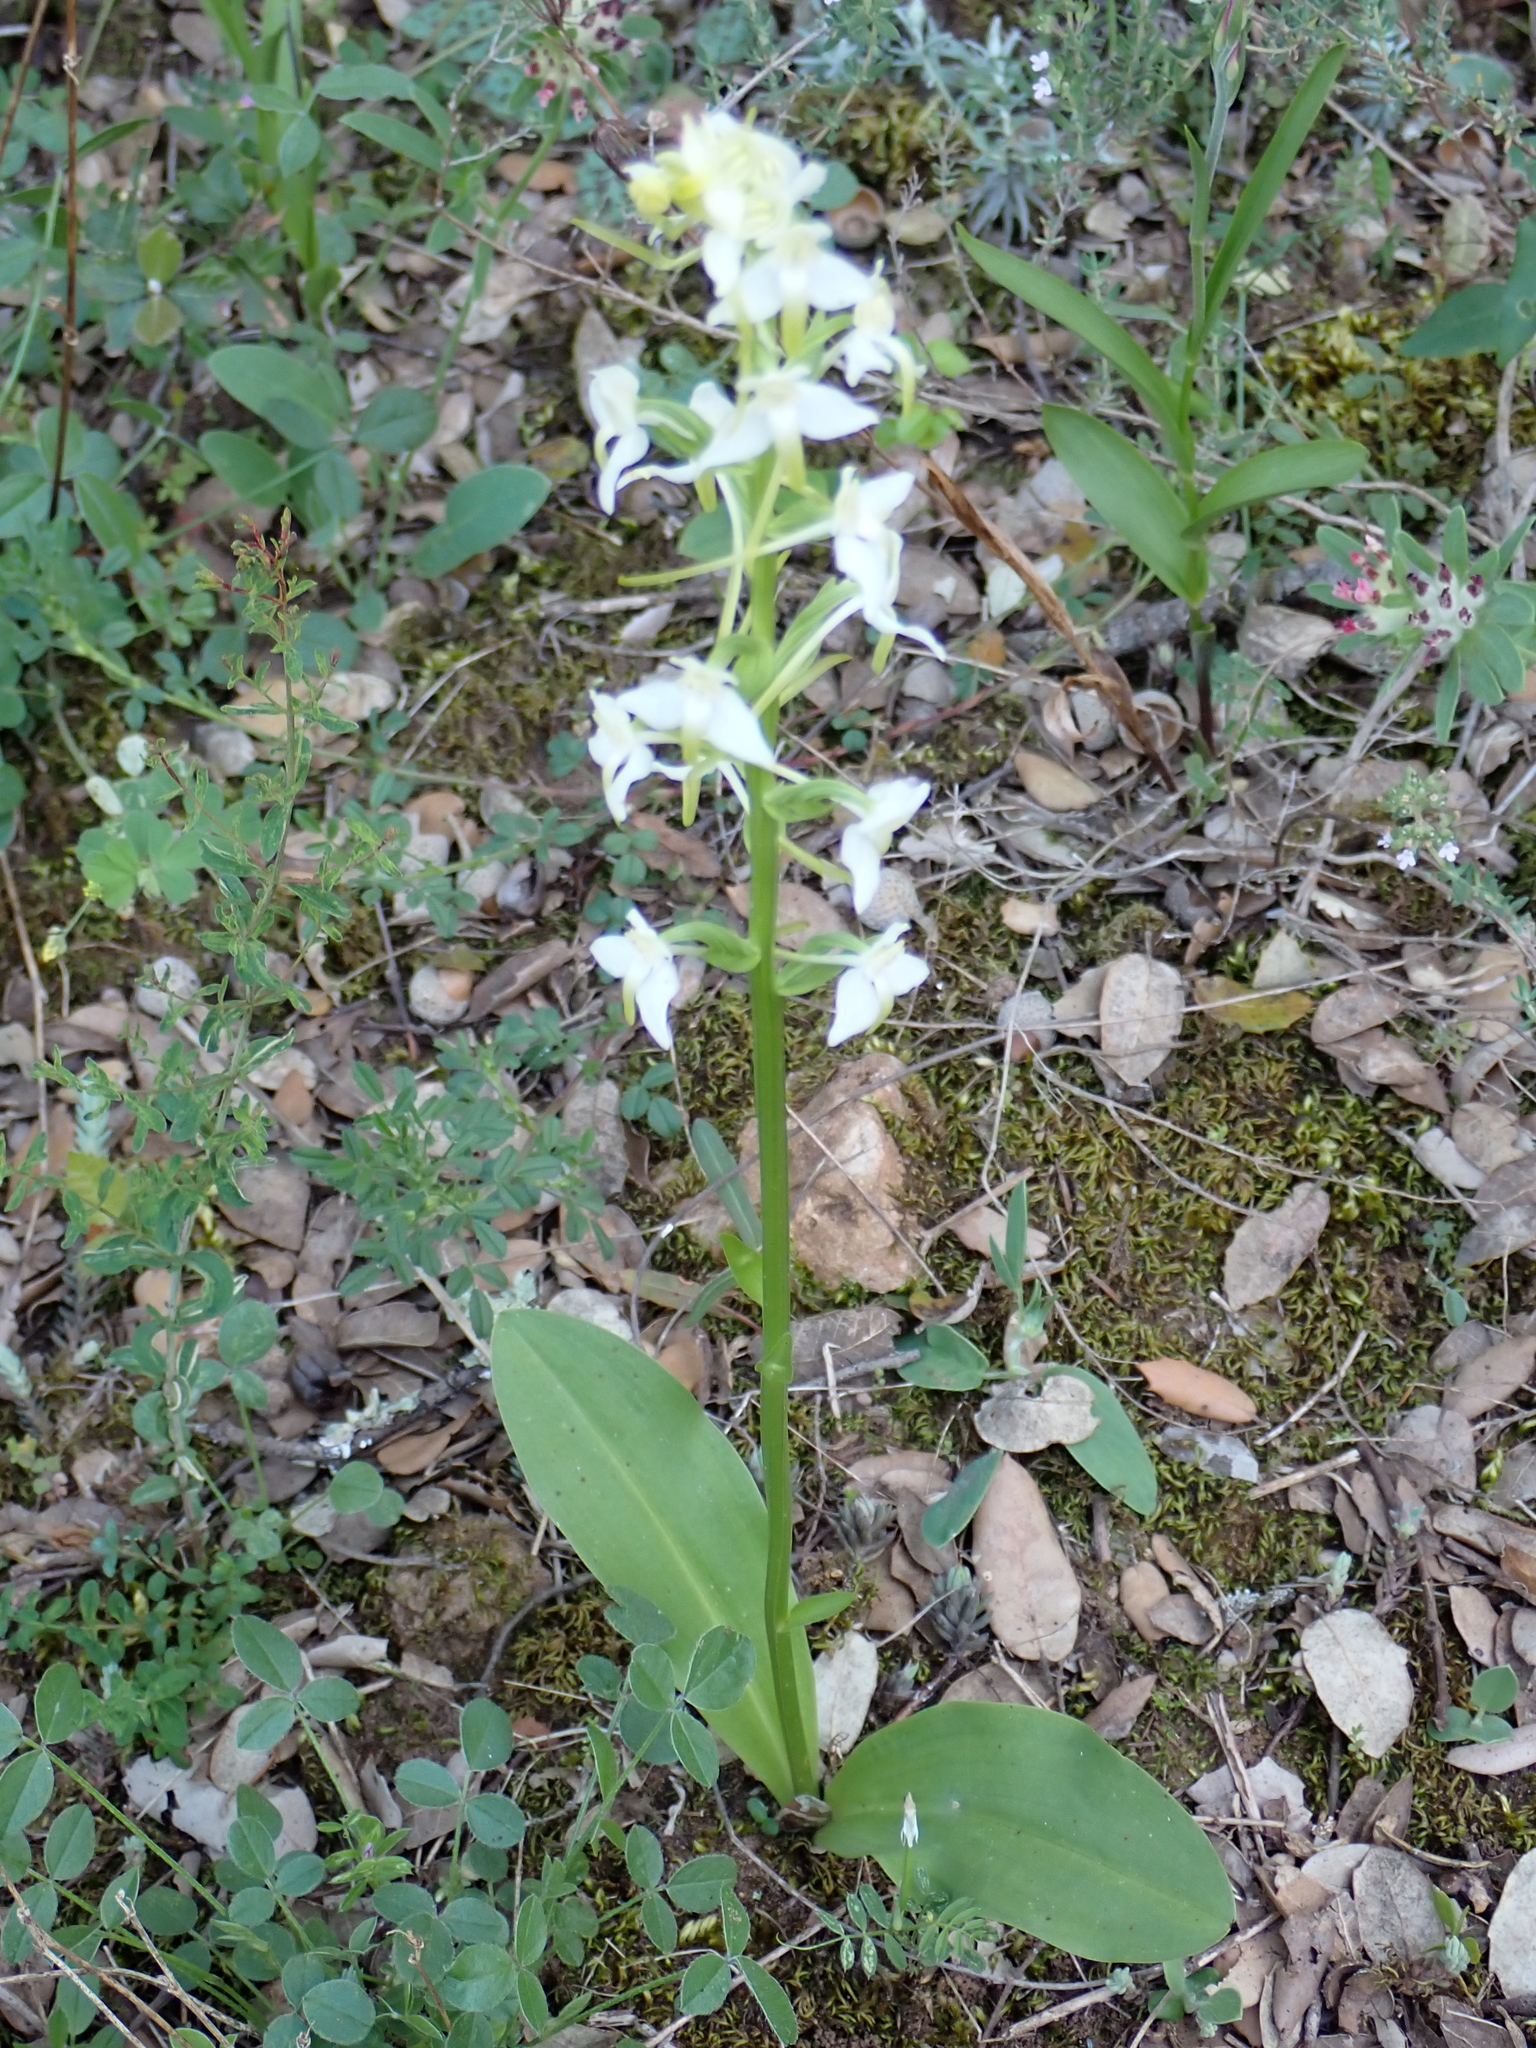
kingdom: Plantae
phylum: Tracheophyta
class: Liliopsida
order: Asparagales
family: Orchidaceae
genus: Platanthera
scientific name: Platanthera bifolia
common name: Lesser butterfly-orchid
